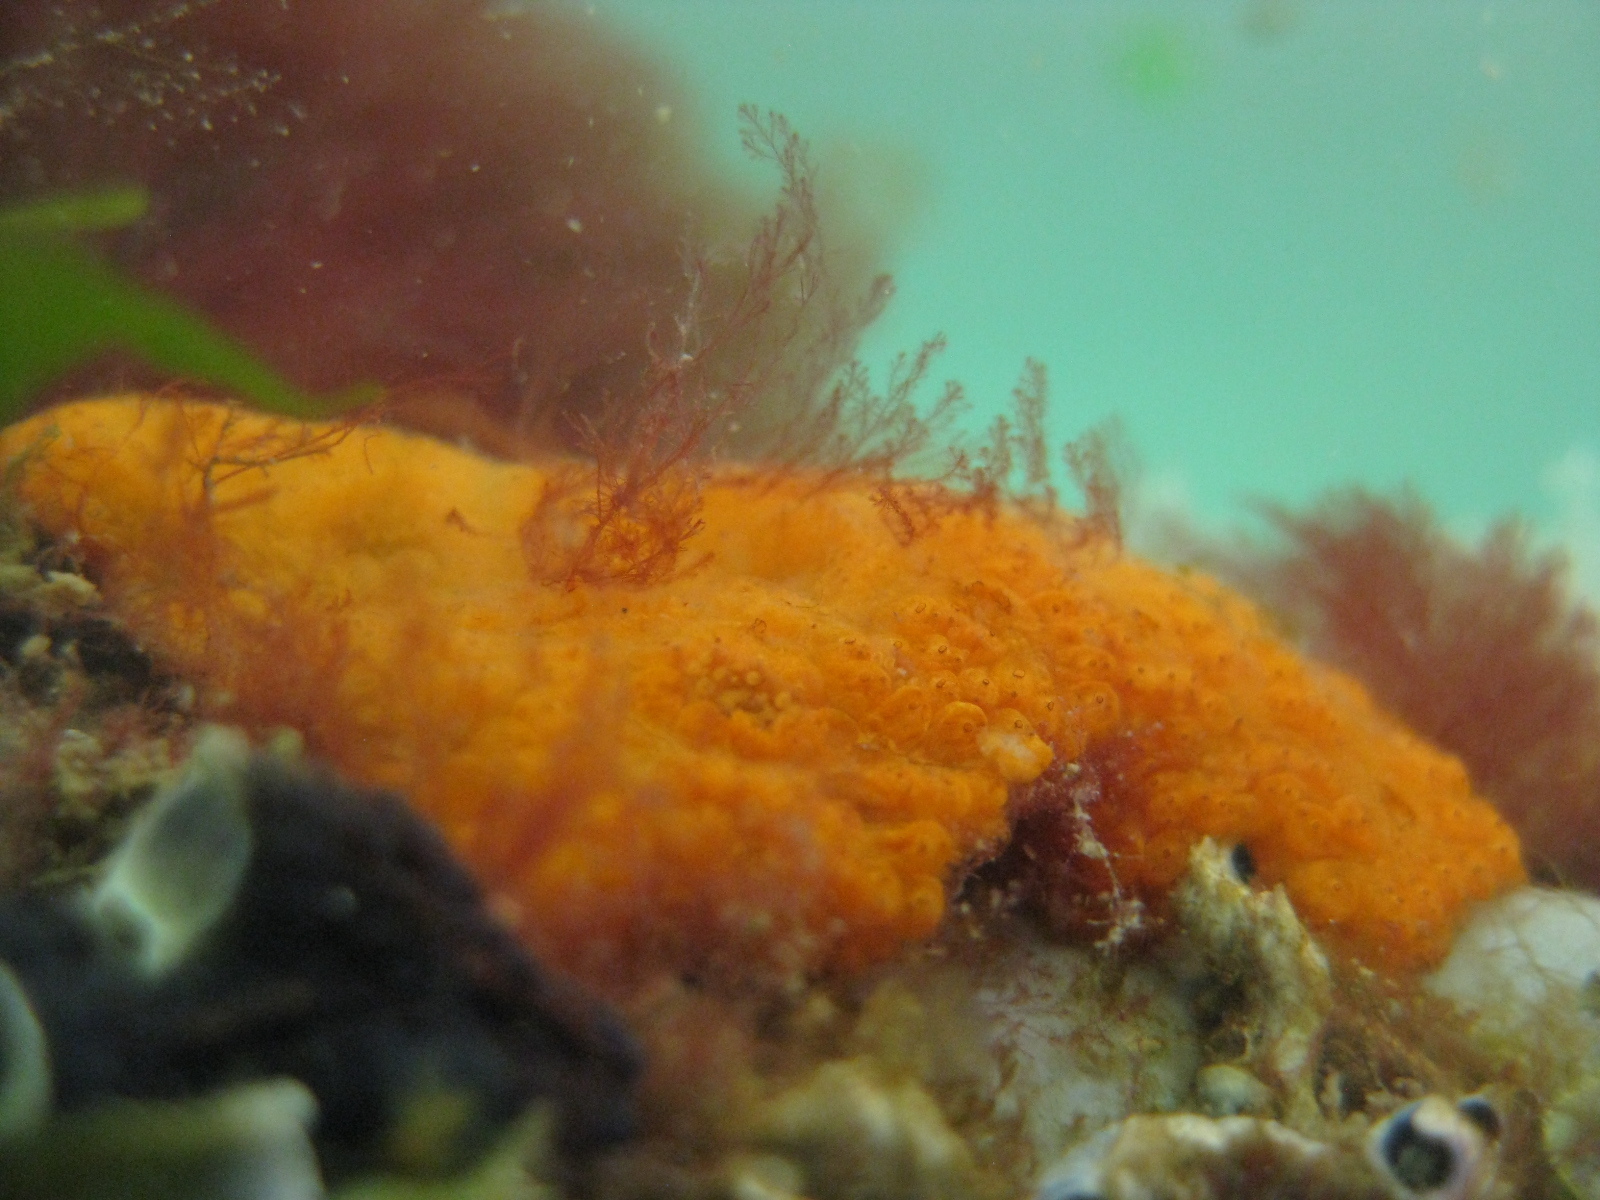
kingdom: Animalia
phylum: Chordata
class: Ascidiacea
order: Stolidobranchia
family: Styelidae
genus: Botrylloides
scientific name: Botrylloides violaceus
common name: Colonial sea squirt
